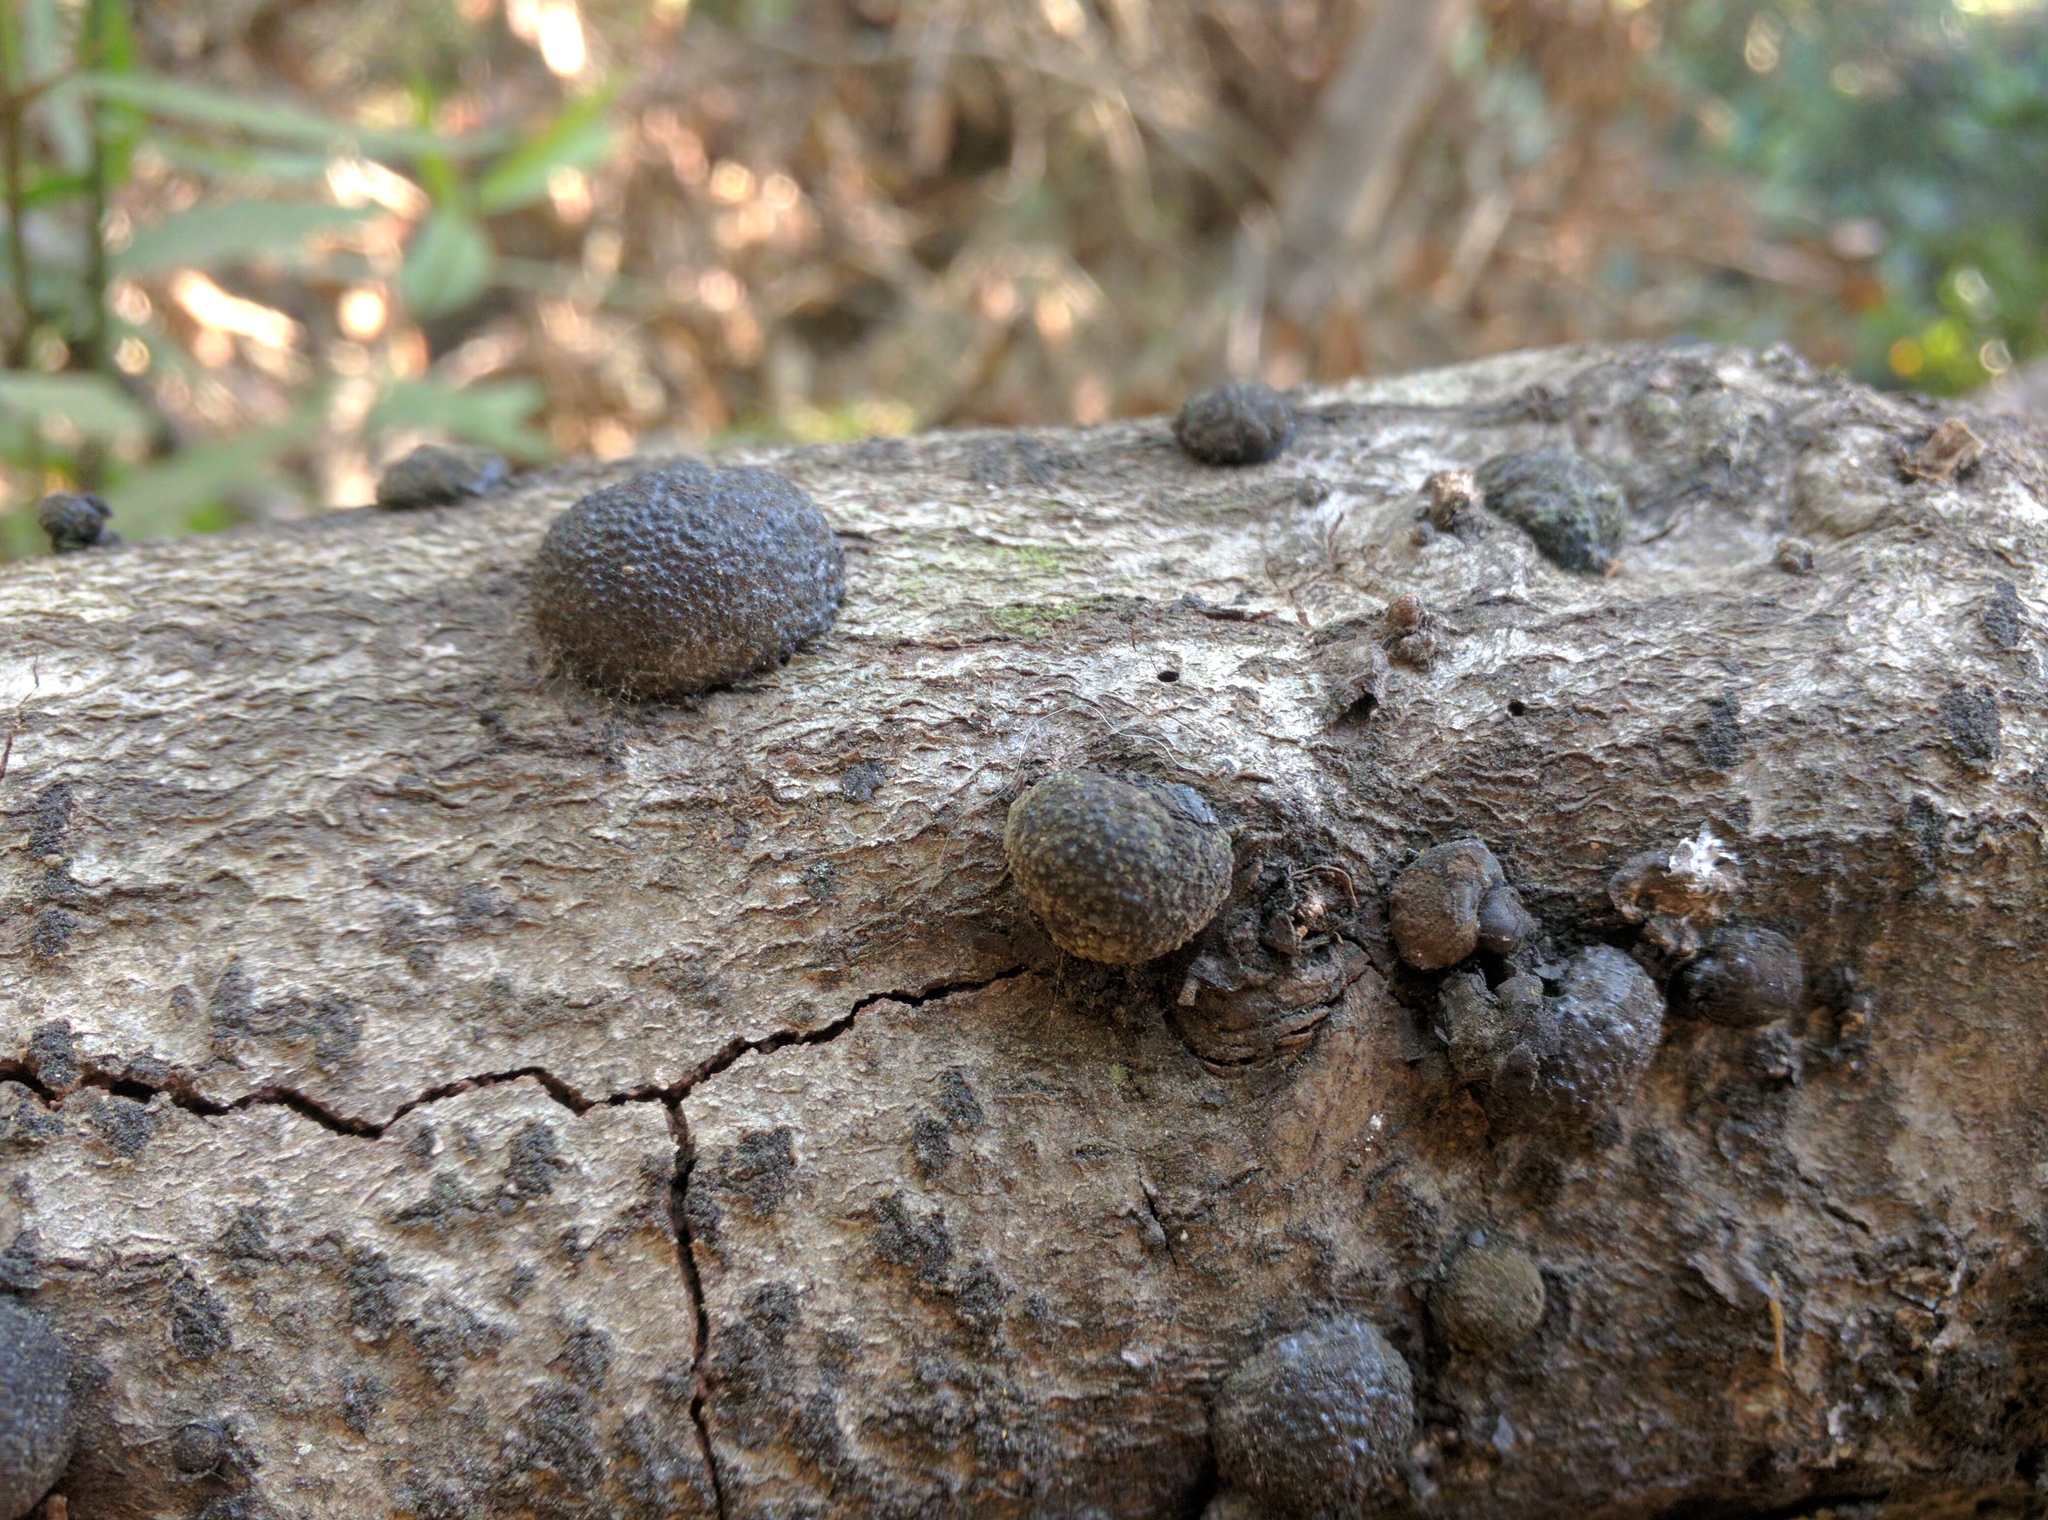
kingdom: Fungi
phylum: Ascomycota
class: Sordariomycetes
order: Xylariales
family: Hypoxylaceae
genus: Annulohypoxylon
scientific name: Annulohypoxylon thouarsianum
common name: Cramp balls
